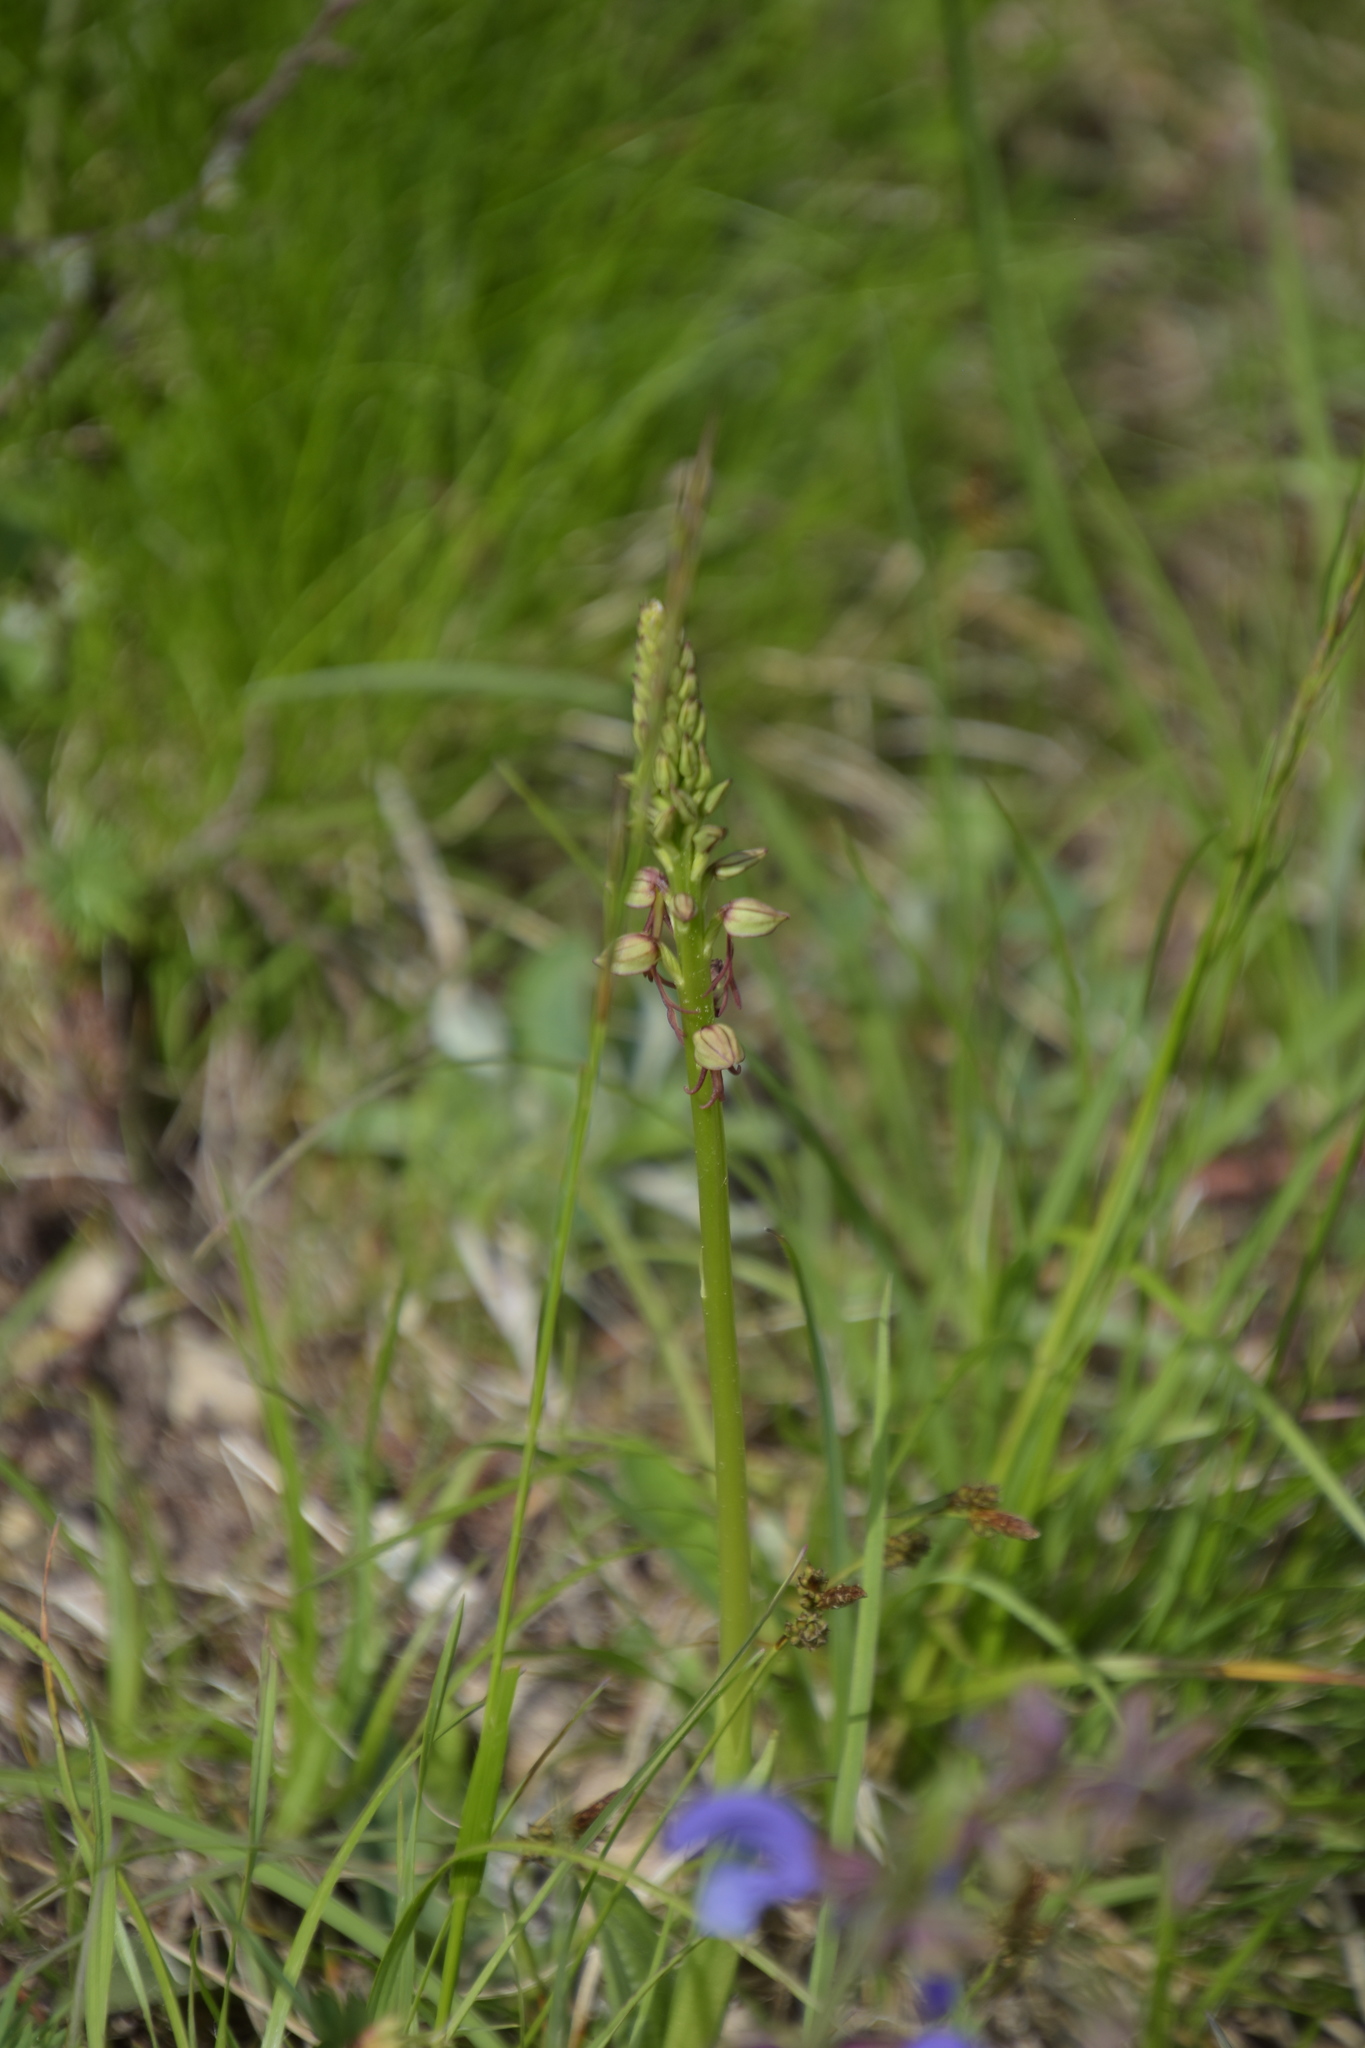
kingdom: Plantae
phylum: Tracheophyta
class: Liliopsida
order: Asparagales
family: Orchidaceae
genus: Orchis
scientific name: Orchis anthropophora
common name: Man orchid
